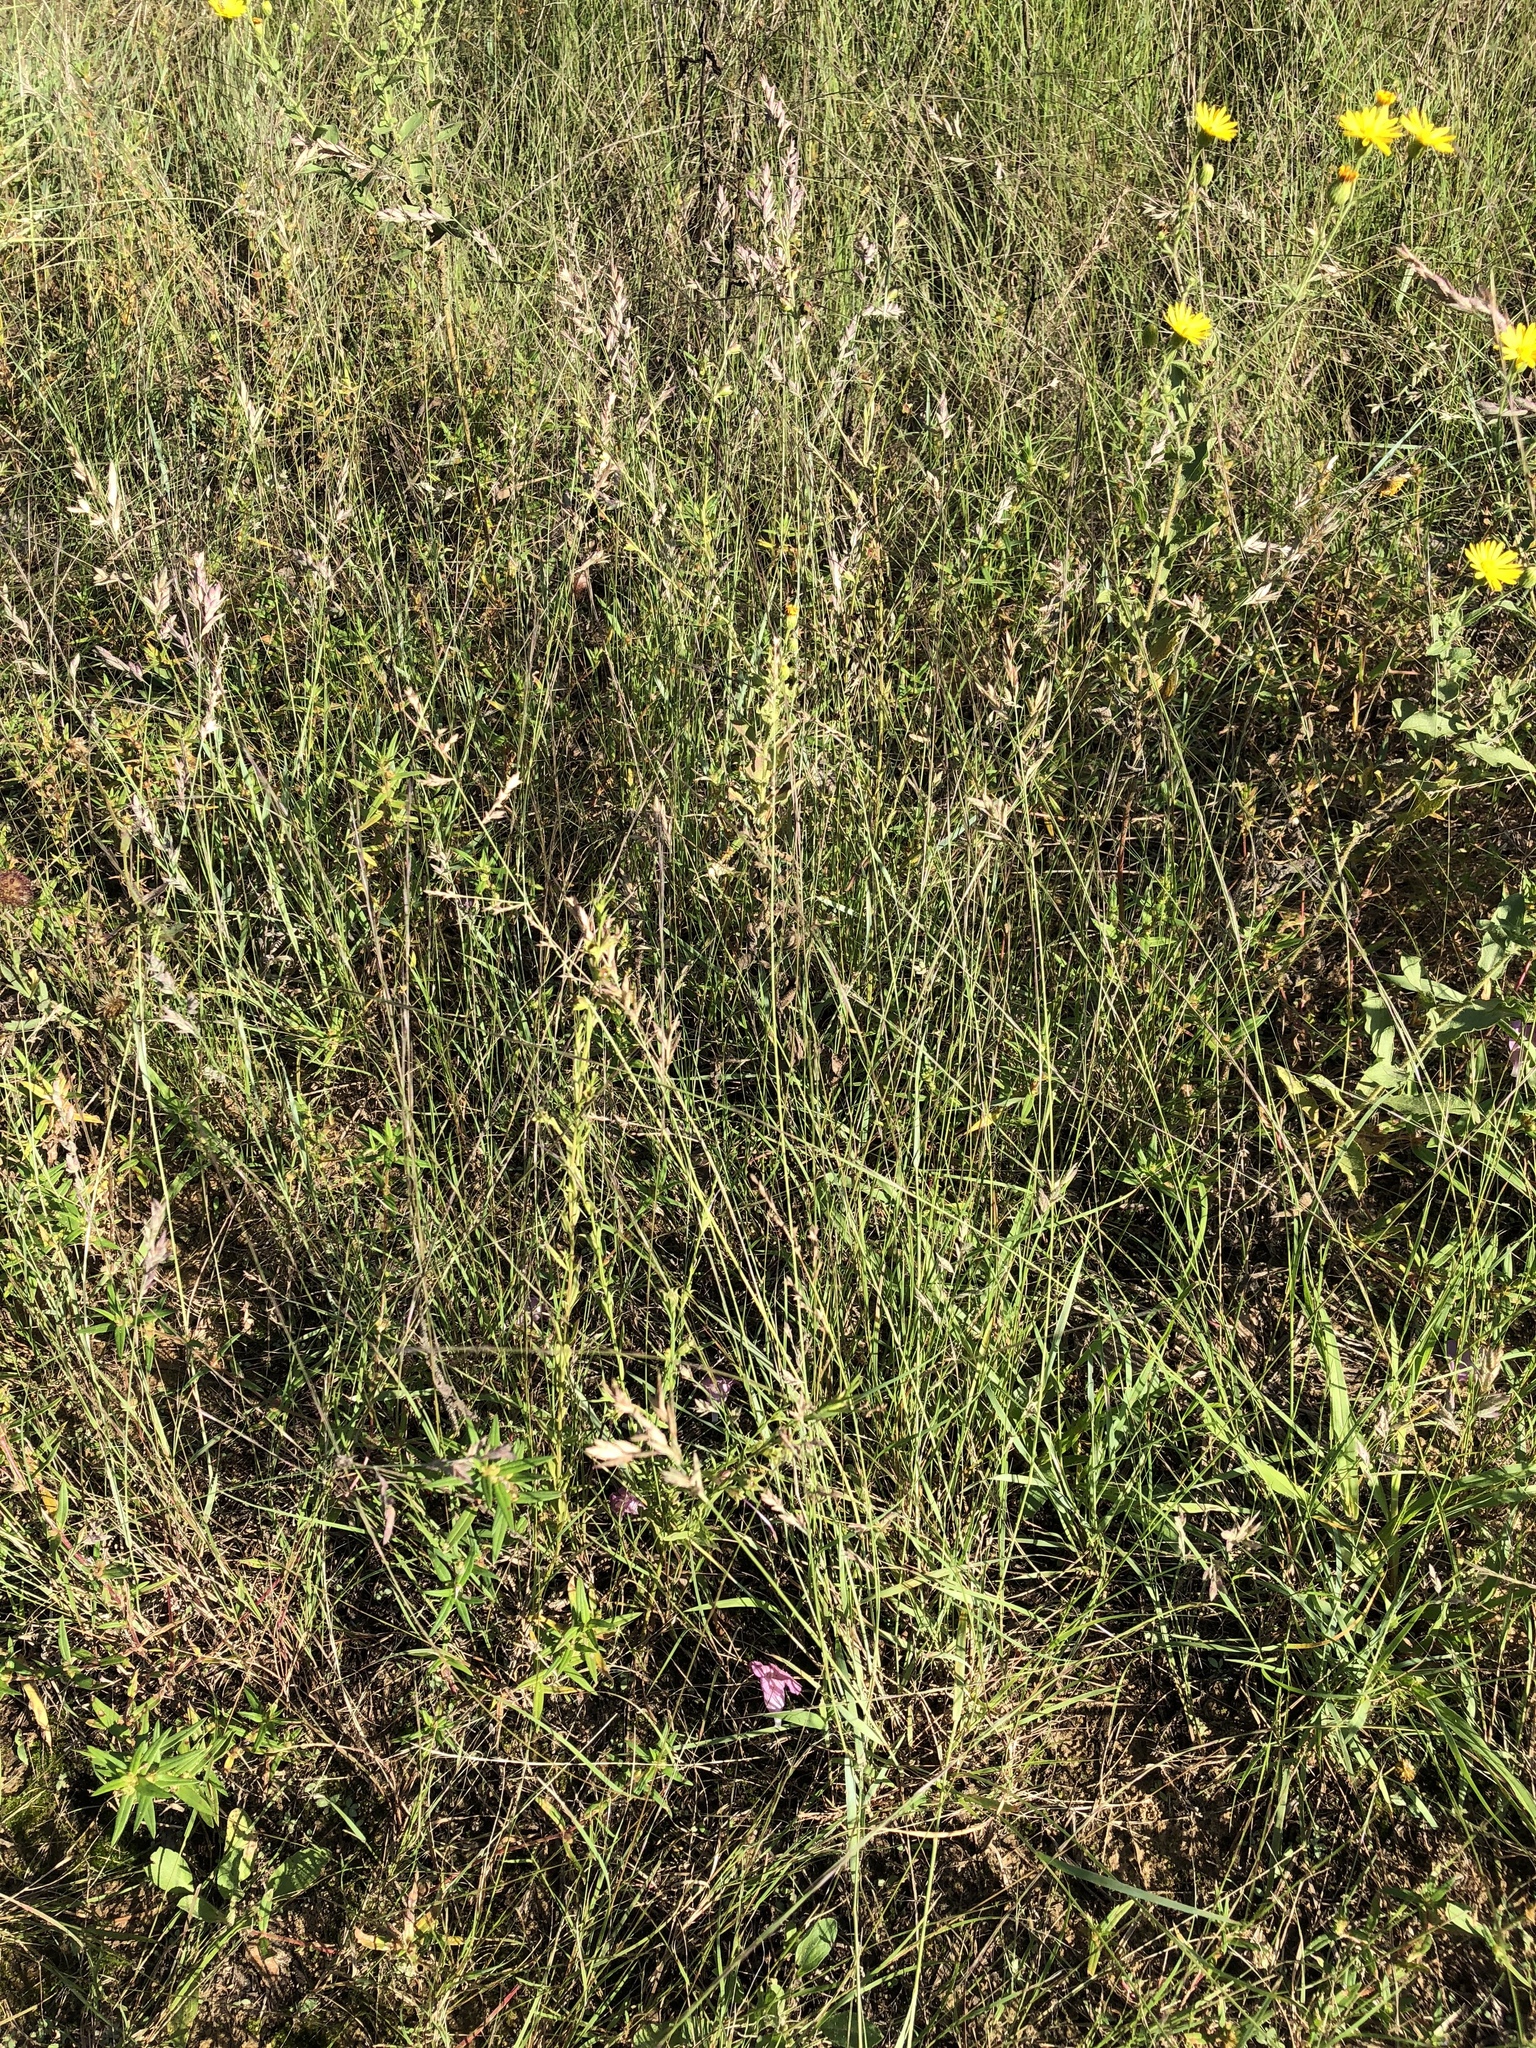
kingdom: Plantae
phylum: Tracheophyta
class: Liliopsida
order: Poales
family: Poaceae
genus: Eragrostis
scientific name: Eragrostis secundiflora
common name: Red love grass
